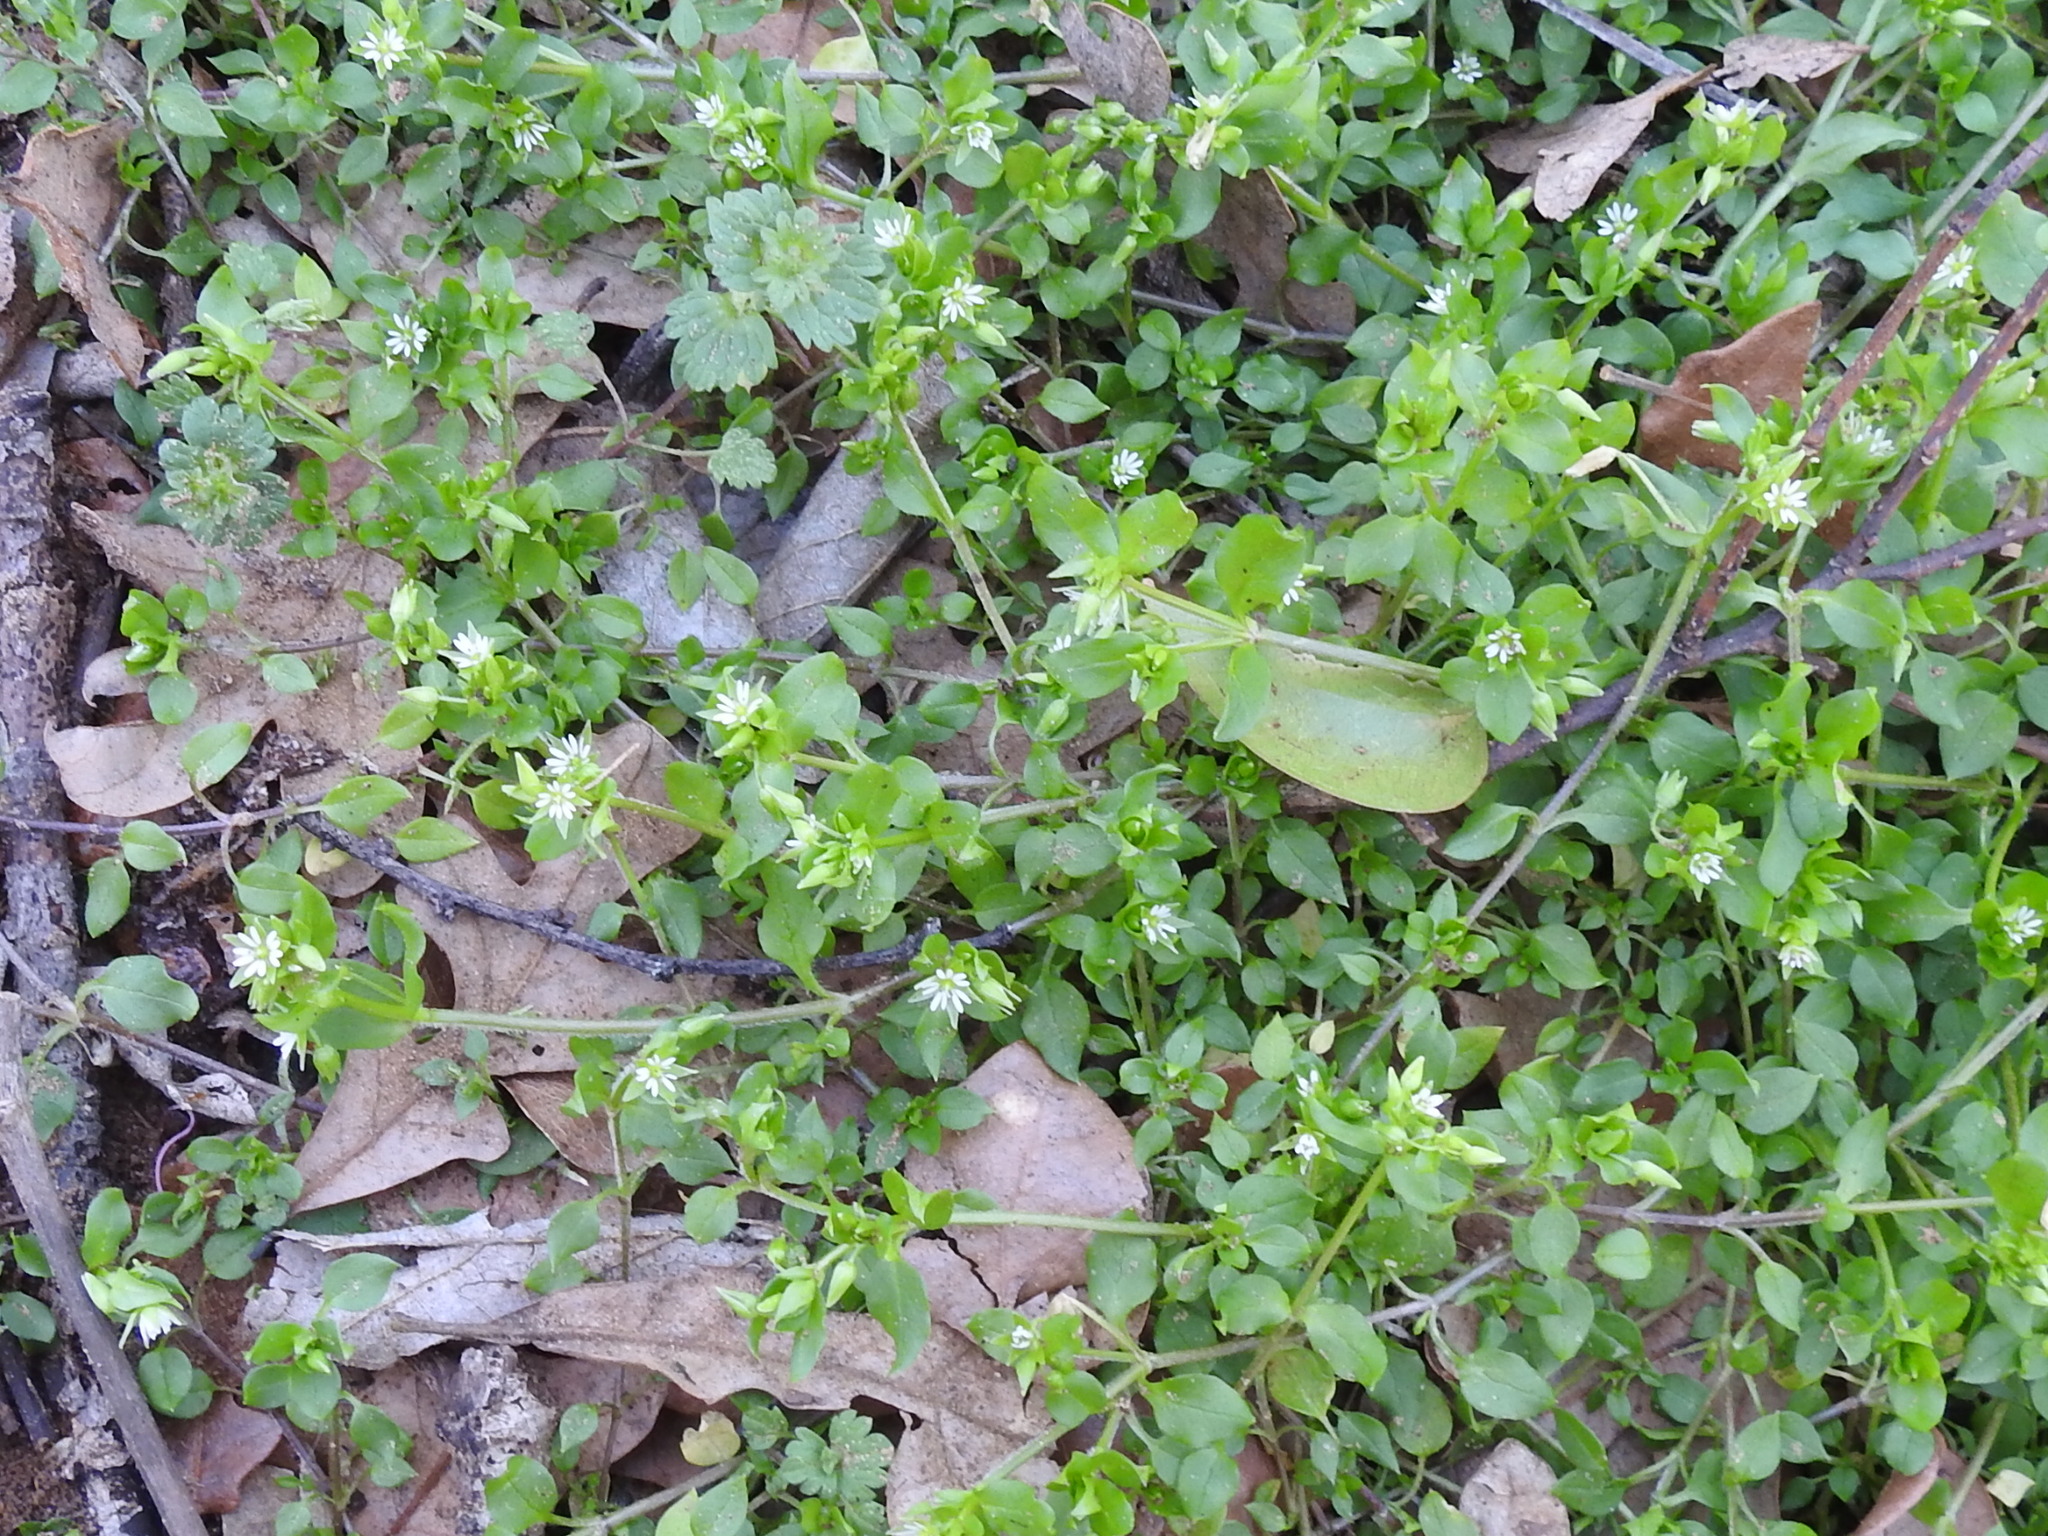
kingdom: Plantae
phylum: Tracheophyta
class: Magnoliopsida
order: Caryophyllales
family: Caryophyllaceae
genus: Stellaria
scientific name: Stellaria media
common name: Common chickweed
